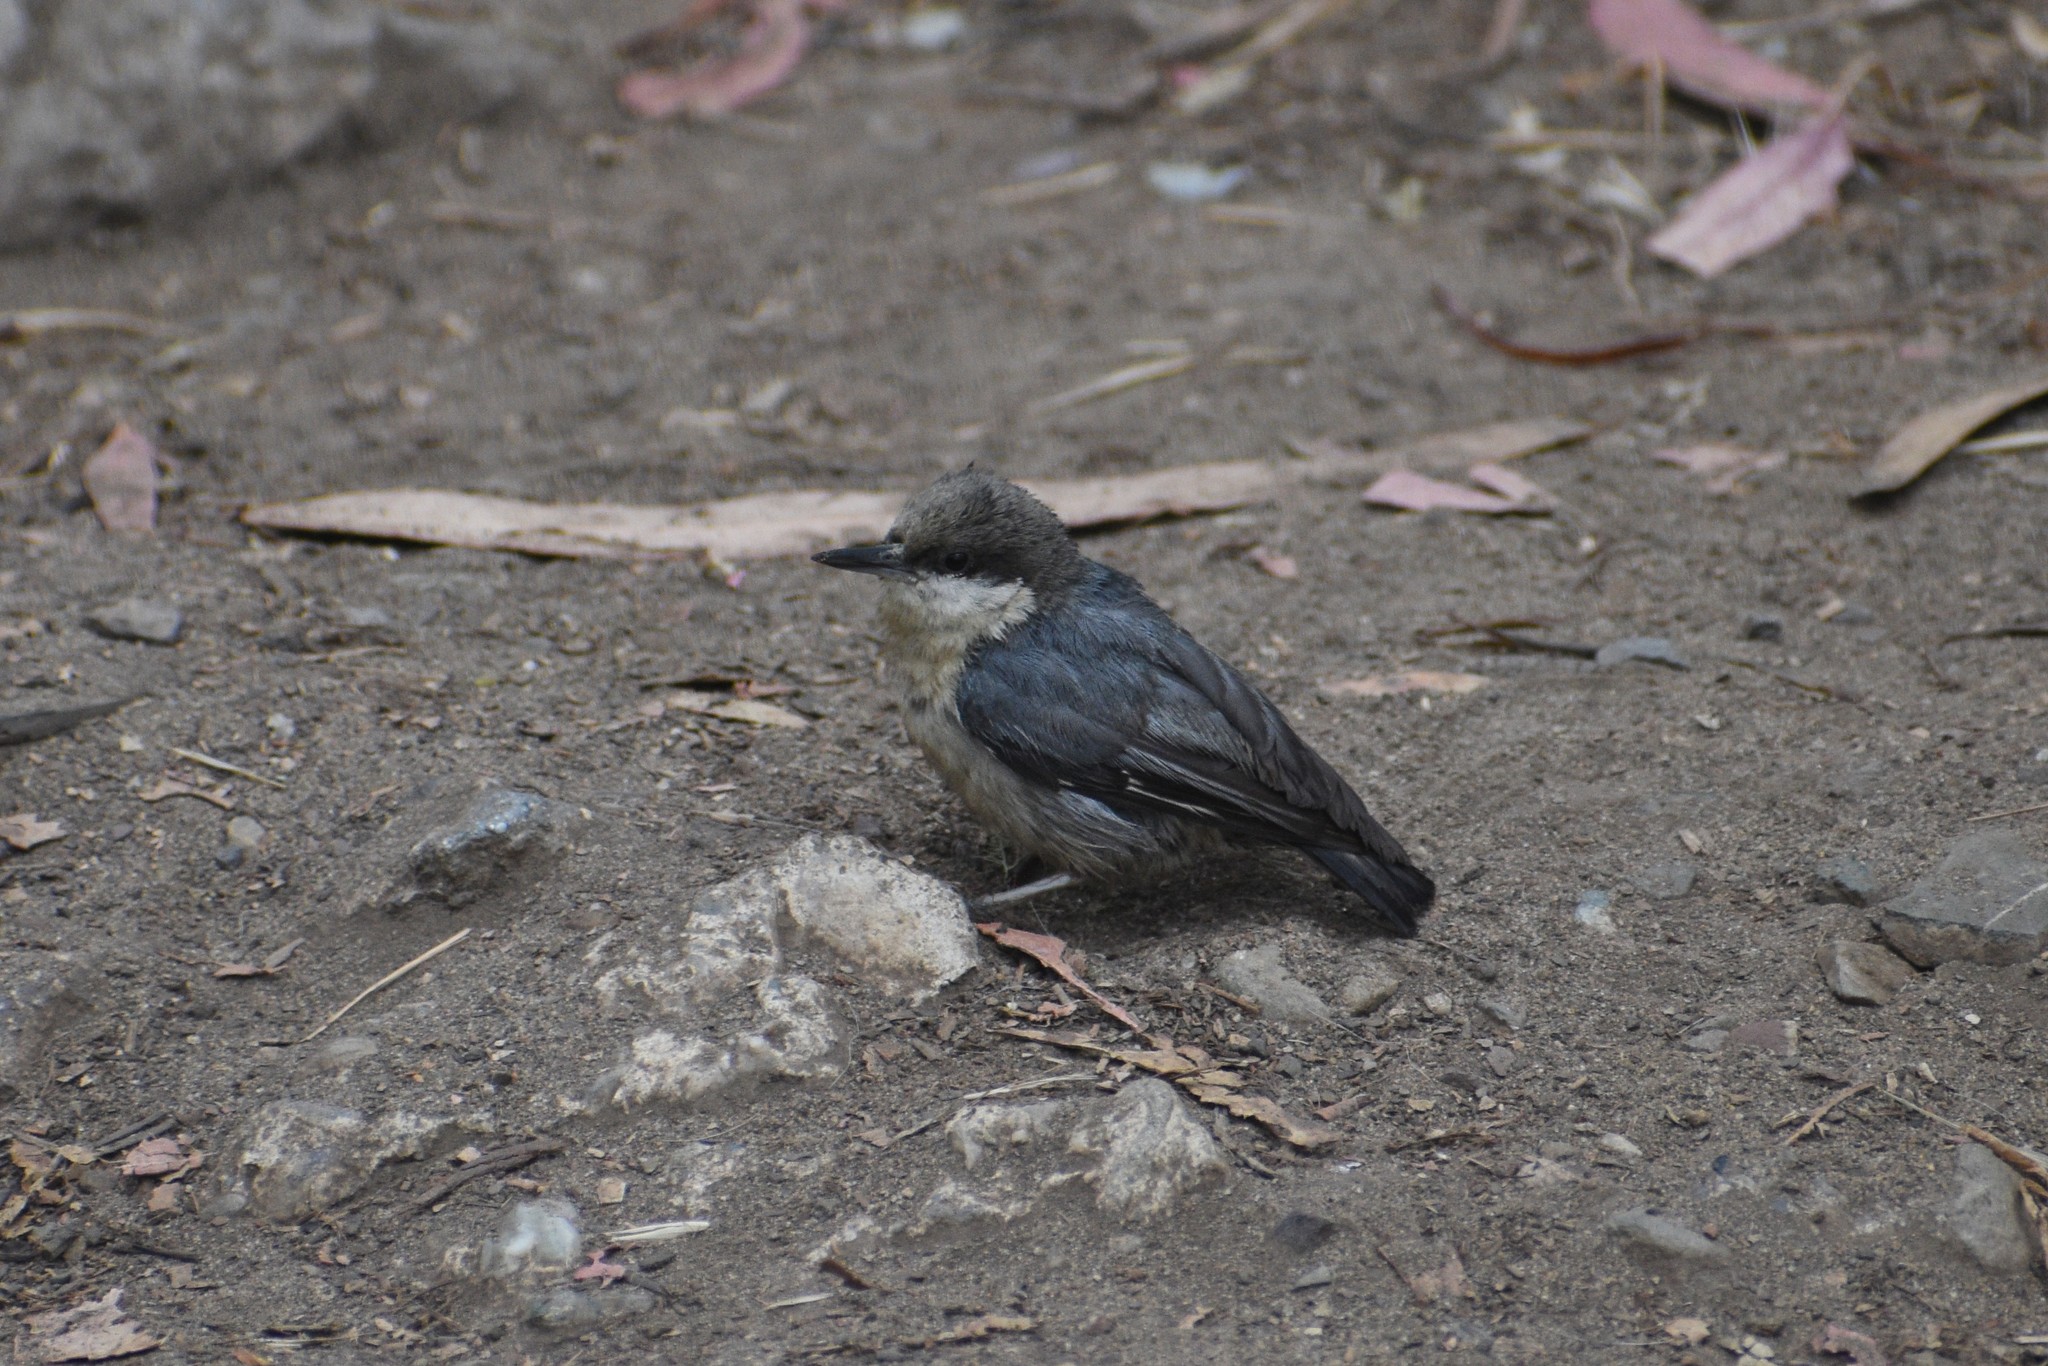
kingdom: Animalia
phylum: Chordata
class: Aves
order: Passeriformes
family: Sittidae
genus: Sitta
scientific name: Sitta pygmaea
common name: Pygmy nuthatch
